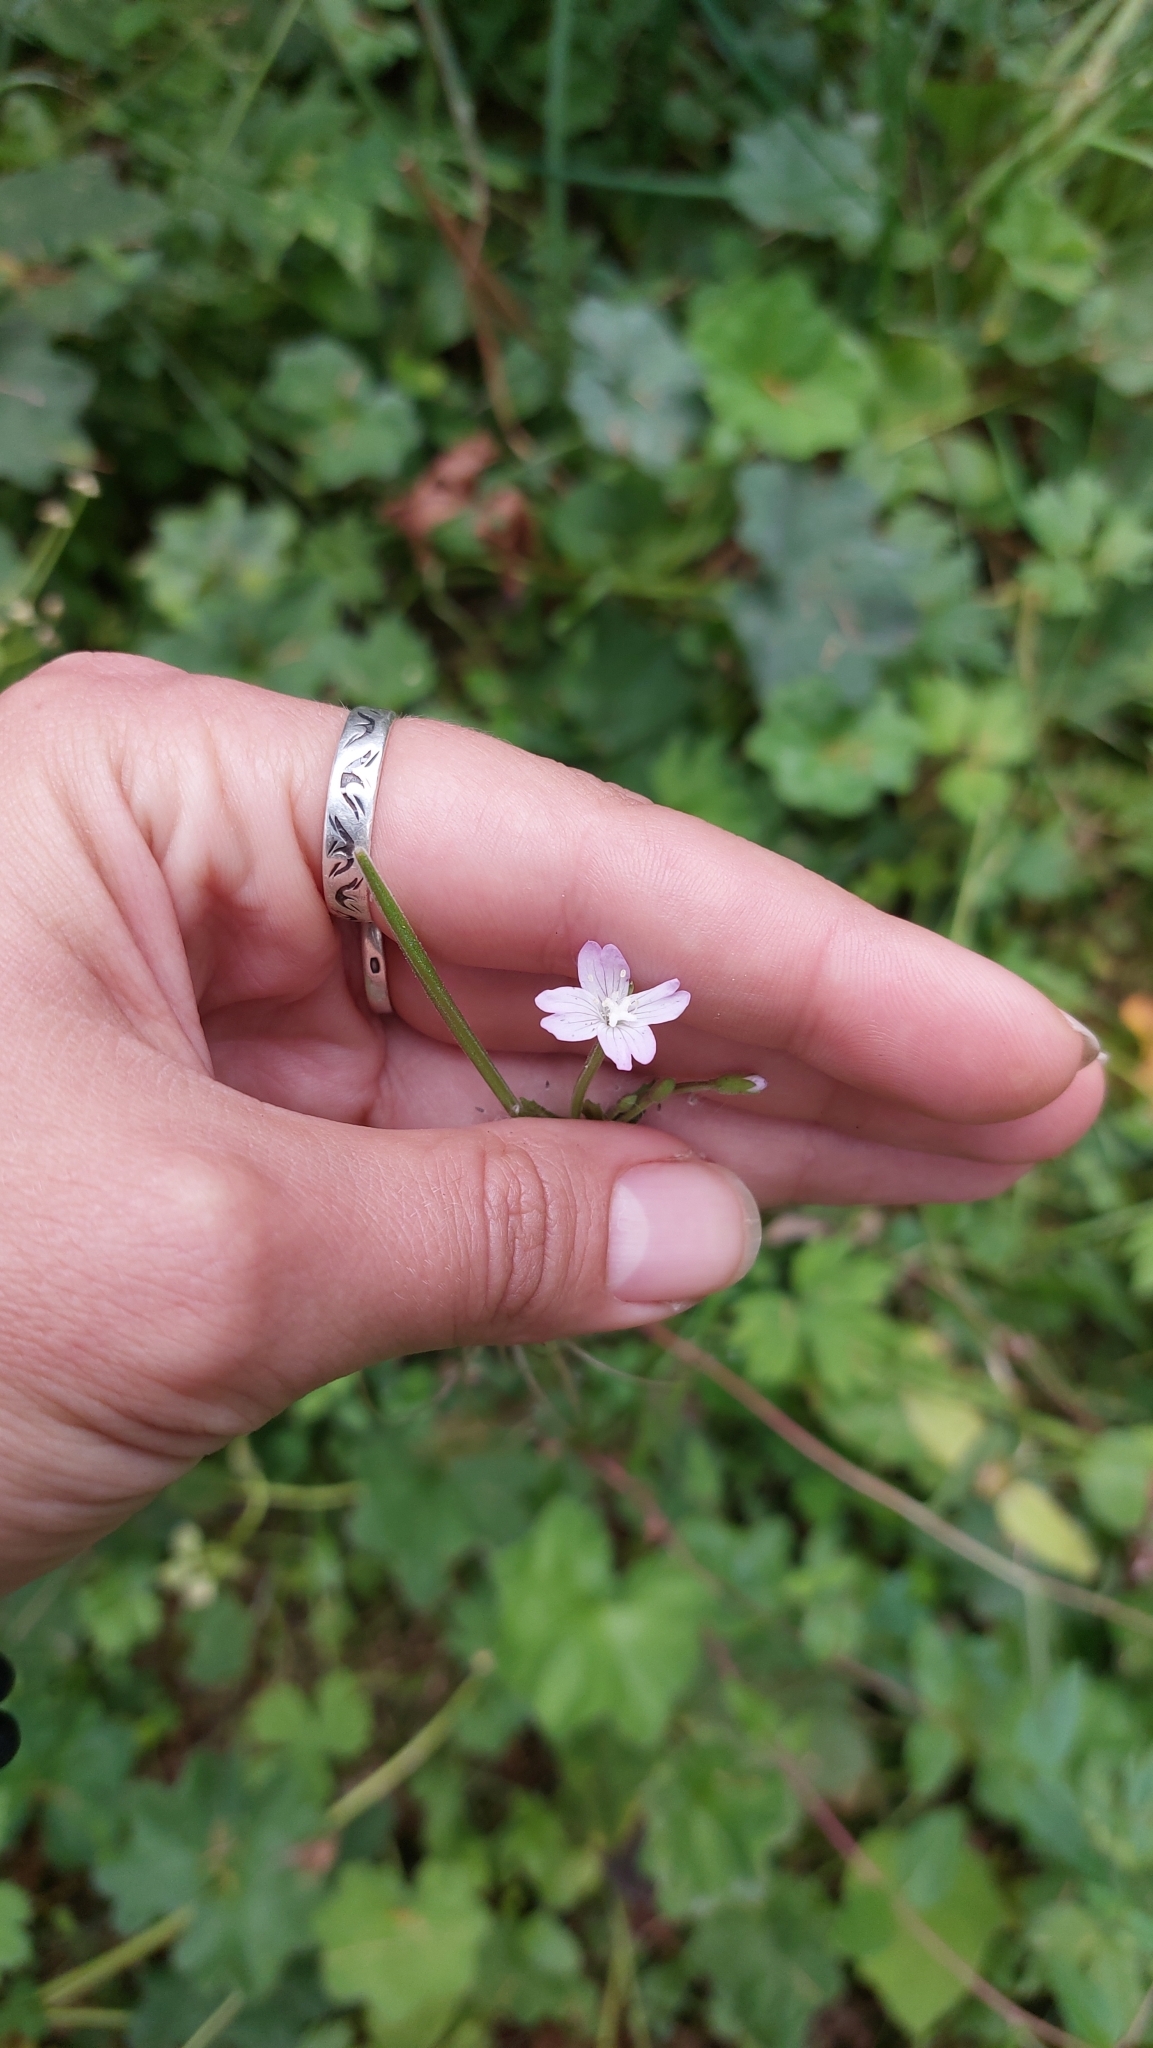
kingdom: Plantae
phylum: Tracheophyta
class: Magnoliopsida
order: Myrtales
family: Onagraceae
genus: Epilobium
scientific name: Epilobium montanum
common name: Broad-leaved willowherb
